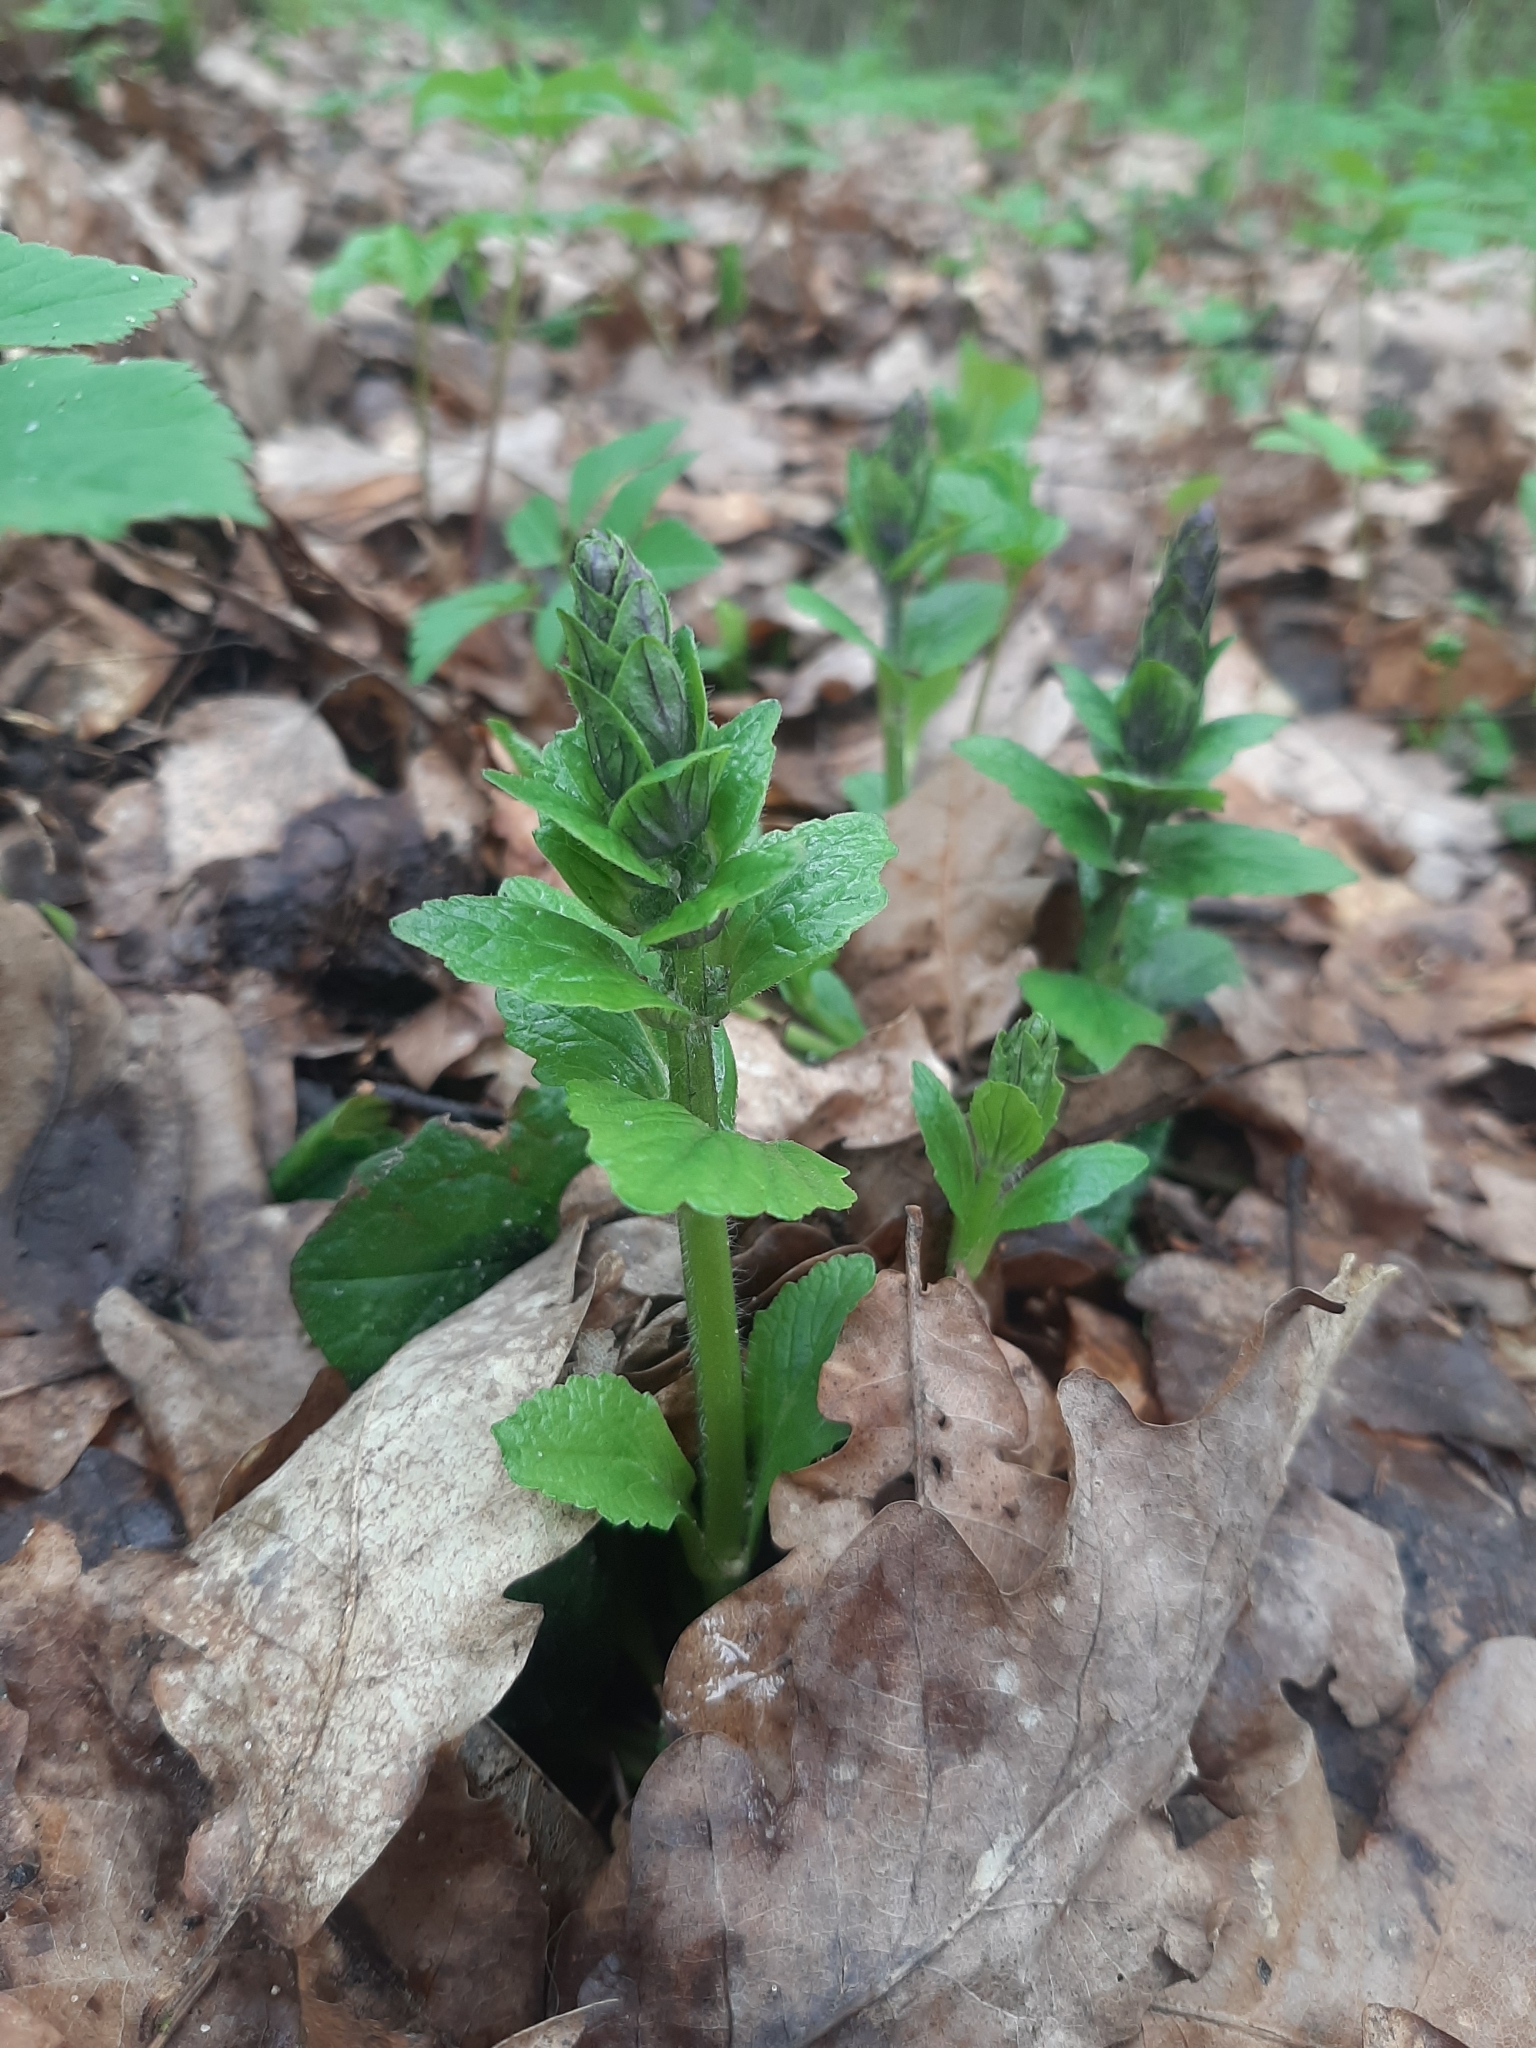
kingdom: Plantae
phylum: Tracheophyta
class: Magnoliopsida
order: Lamiales
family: Lamiaceae
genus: Ajuga
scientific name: Ajuga reptans
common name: Bugle
